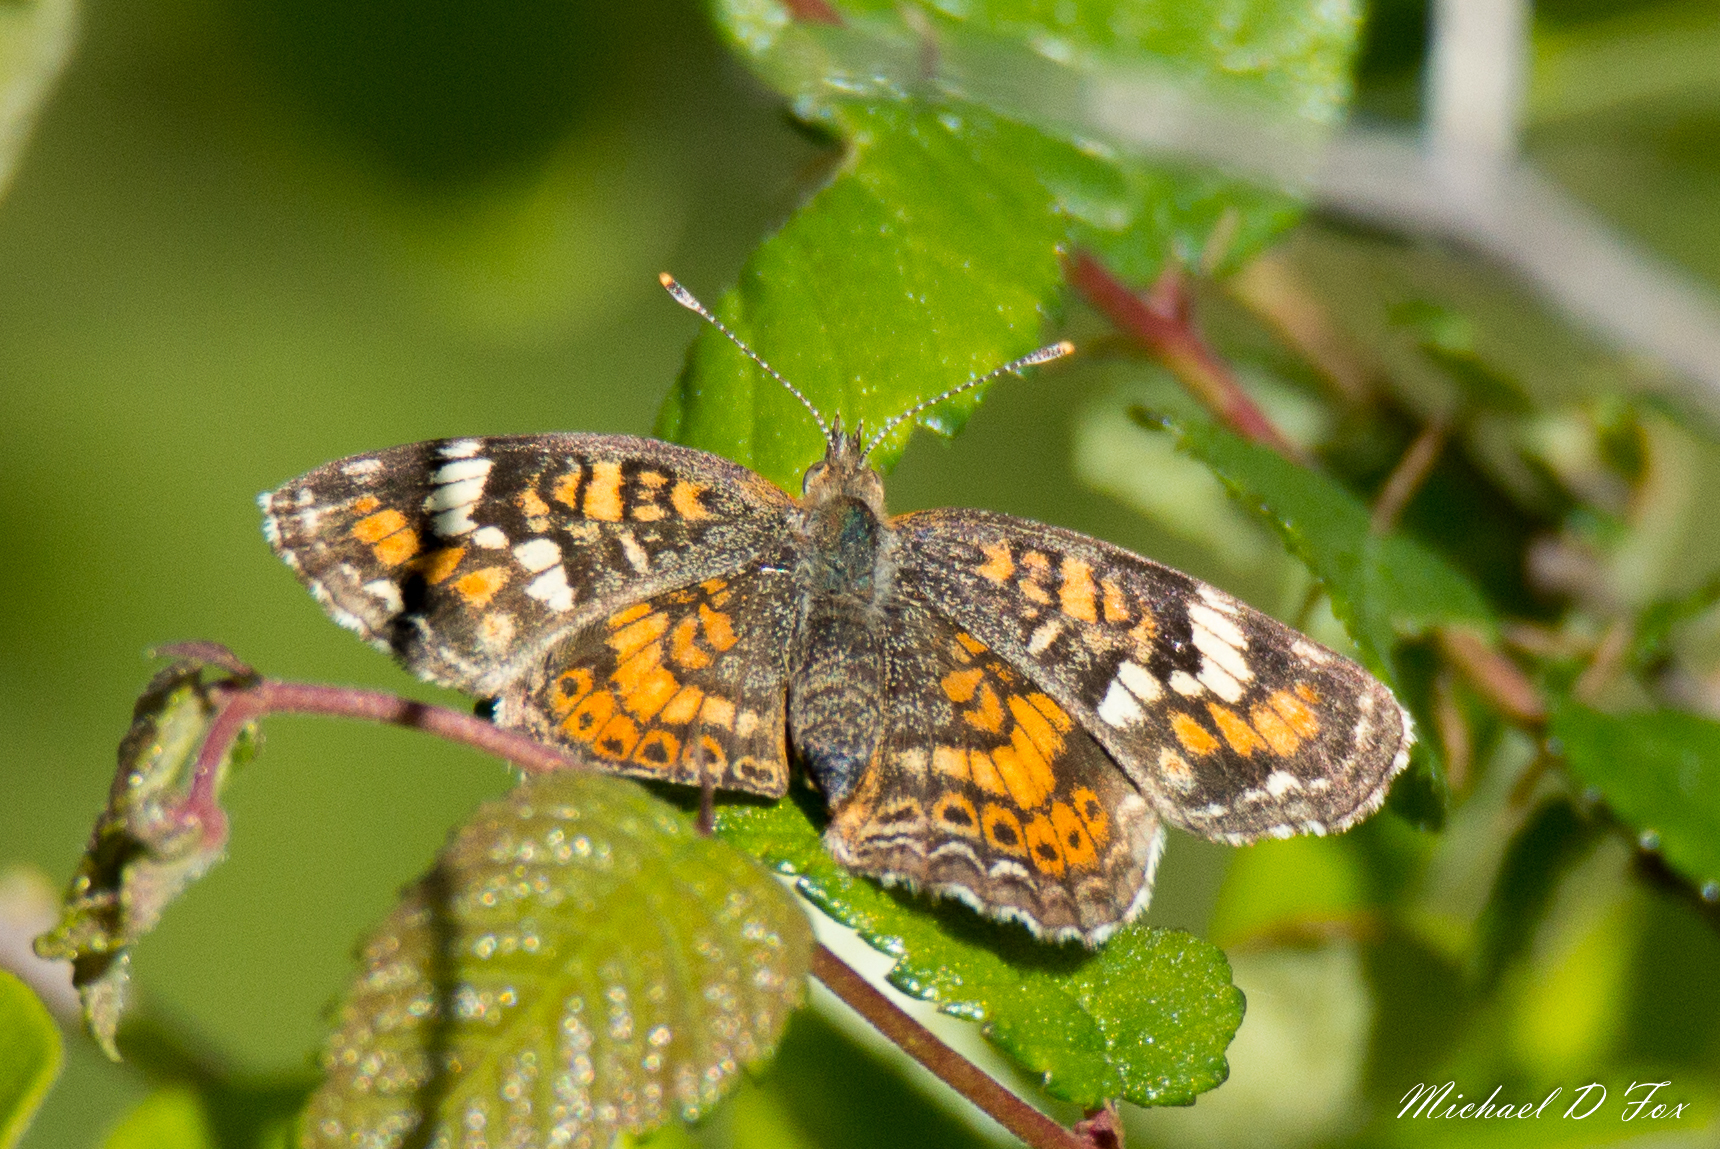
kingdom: Animalia
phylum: Arthropoda
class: Insecta
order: Lepidoptera
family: Nymphalidae
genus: Phyciodes
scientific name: Phyciodes phaon
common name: Phaon crescent
